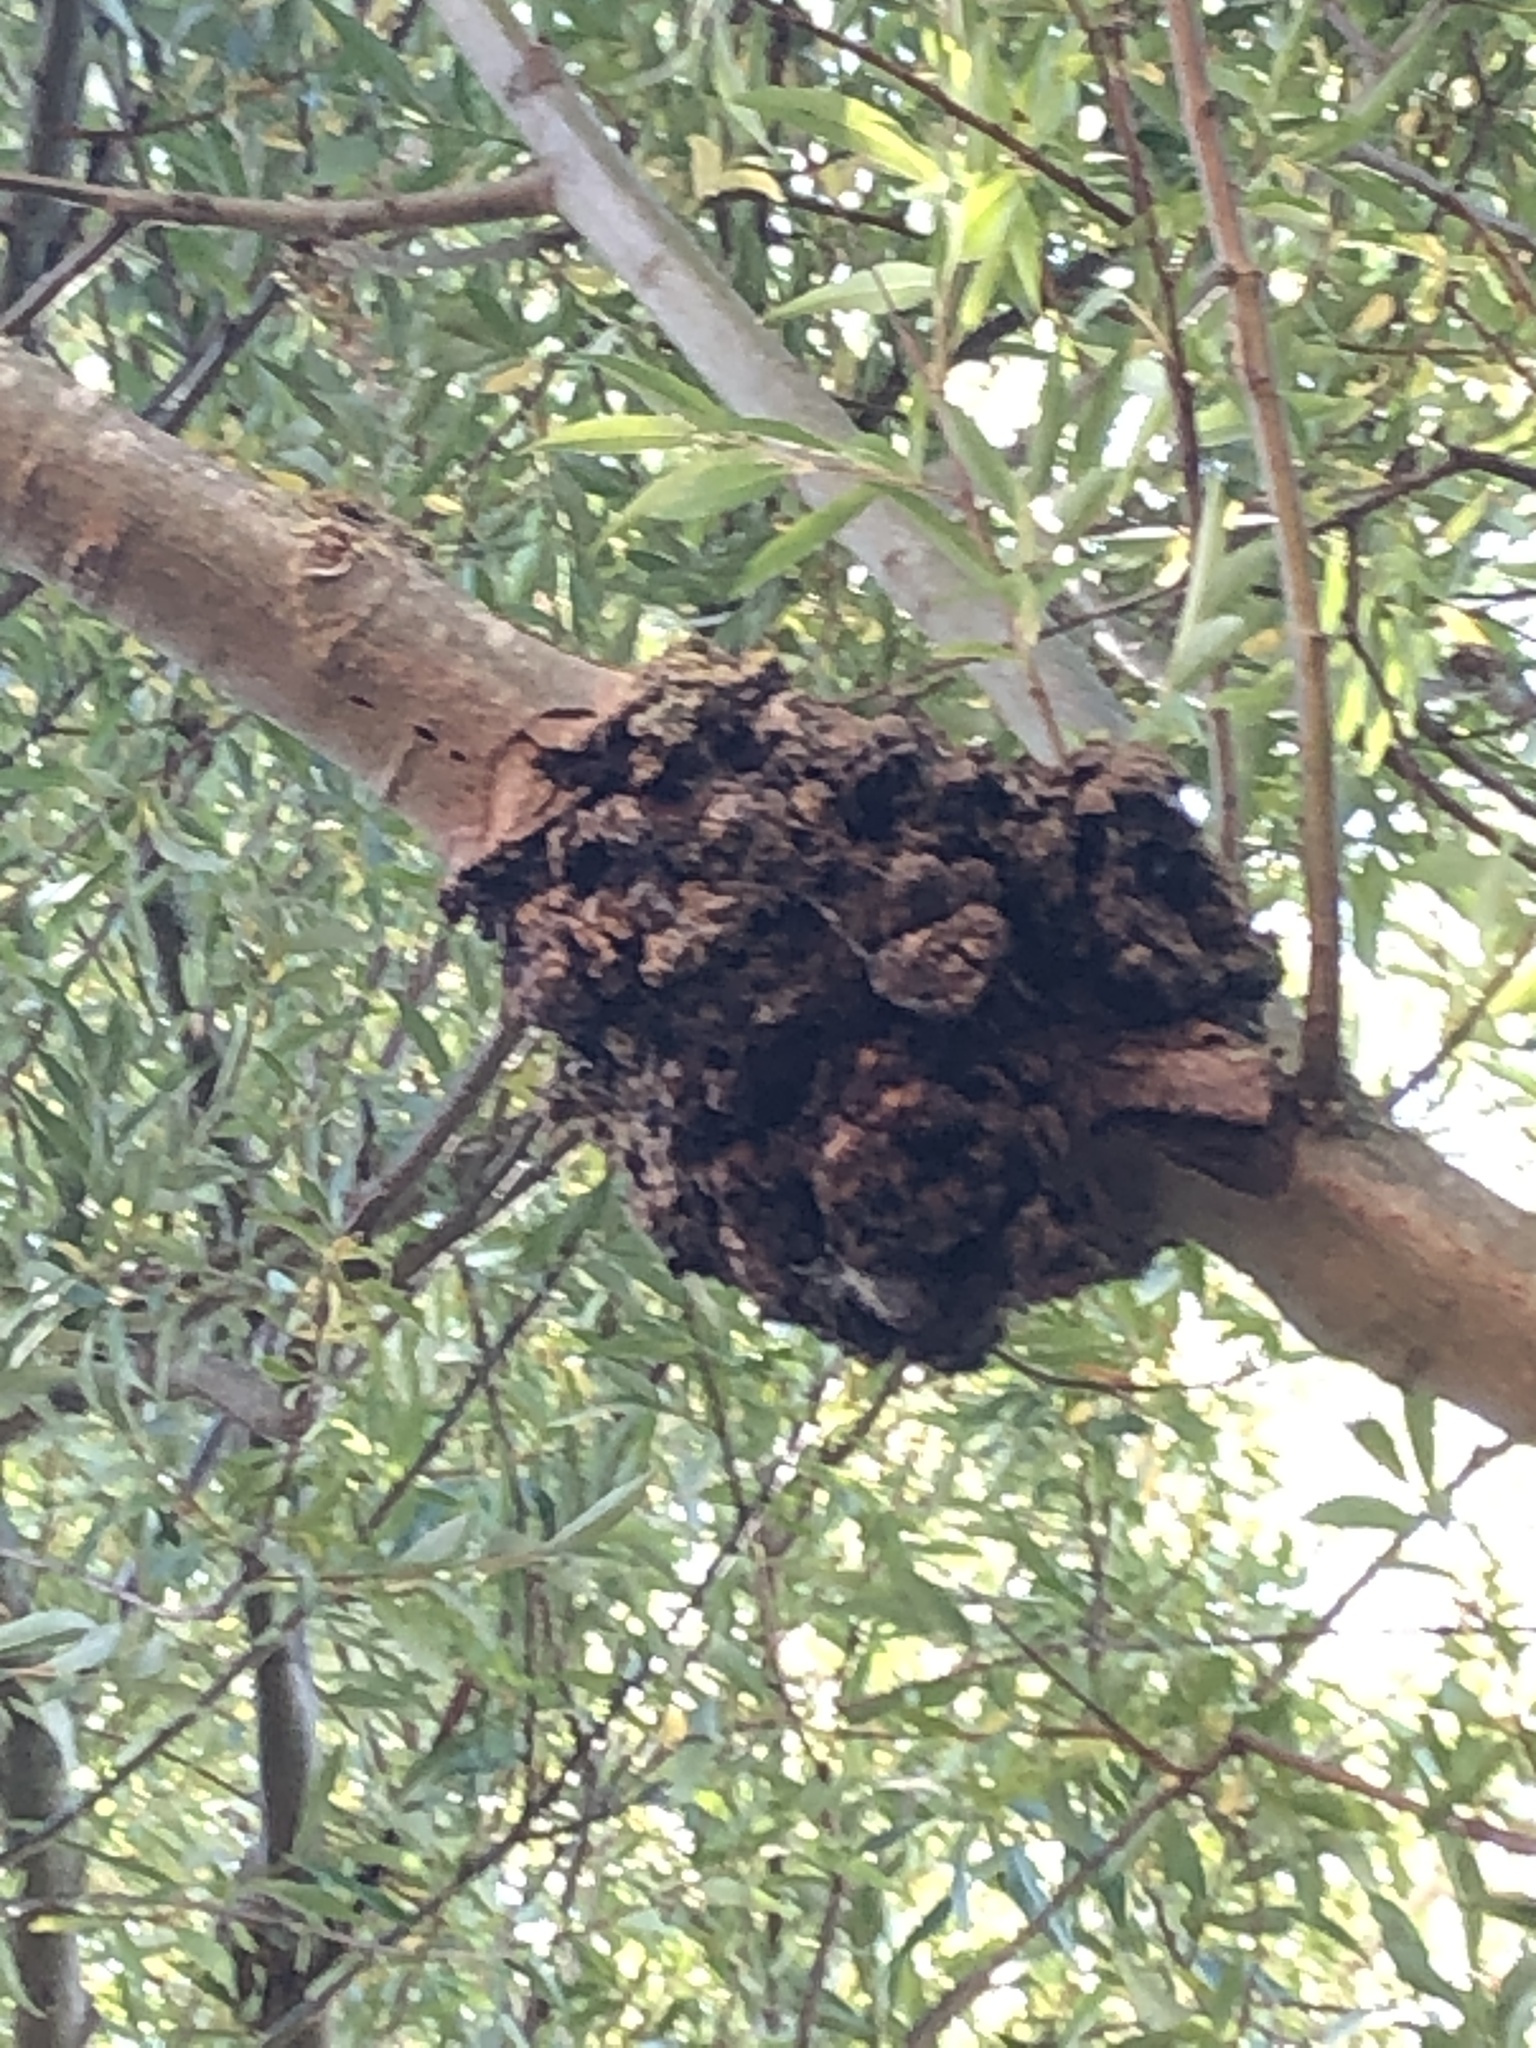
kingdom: Bacteria
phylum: Proteobacteria
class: Alphaproteobacteria
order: Rhizobiales
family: Rhizobiaceae
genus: Rhizobium
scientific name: Rhizobium Agrobacterium radiobacter
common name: Bacterial crown gall
